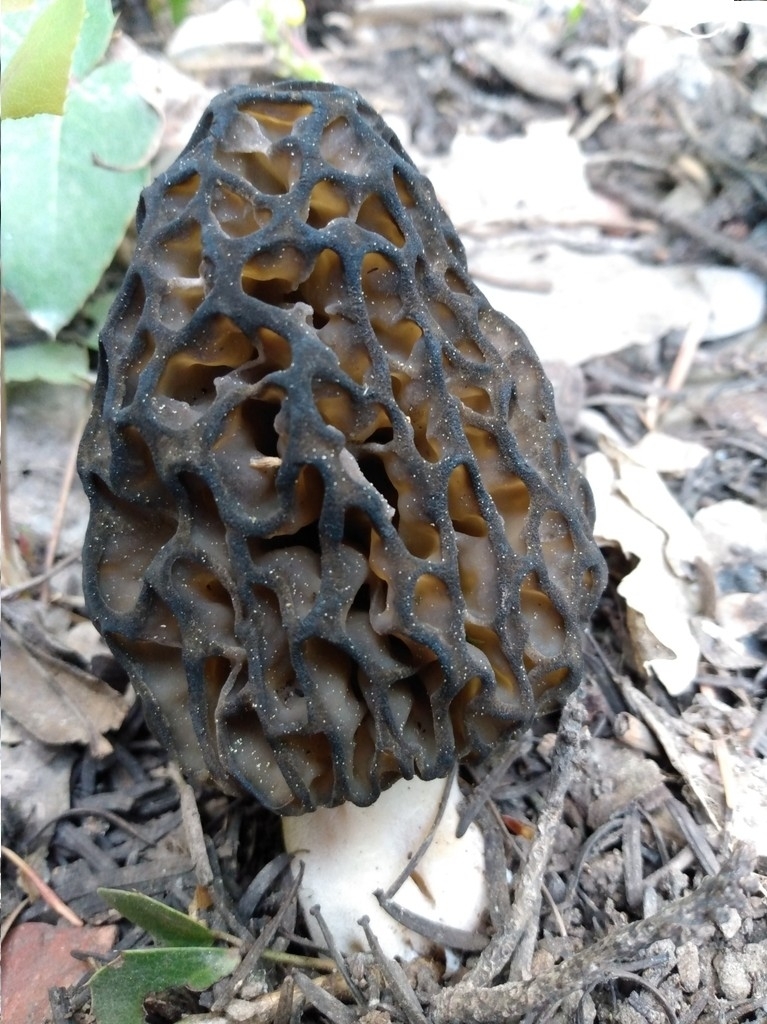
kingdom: Fungi
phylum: Ascomycota
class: Pezizomycetes
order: Pezizales
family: Morchellaceae
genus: Morchella
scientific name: Morchella snyderi
